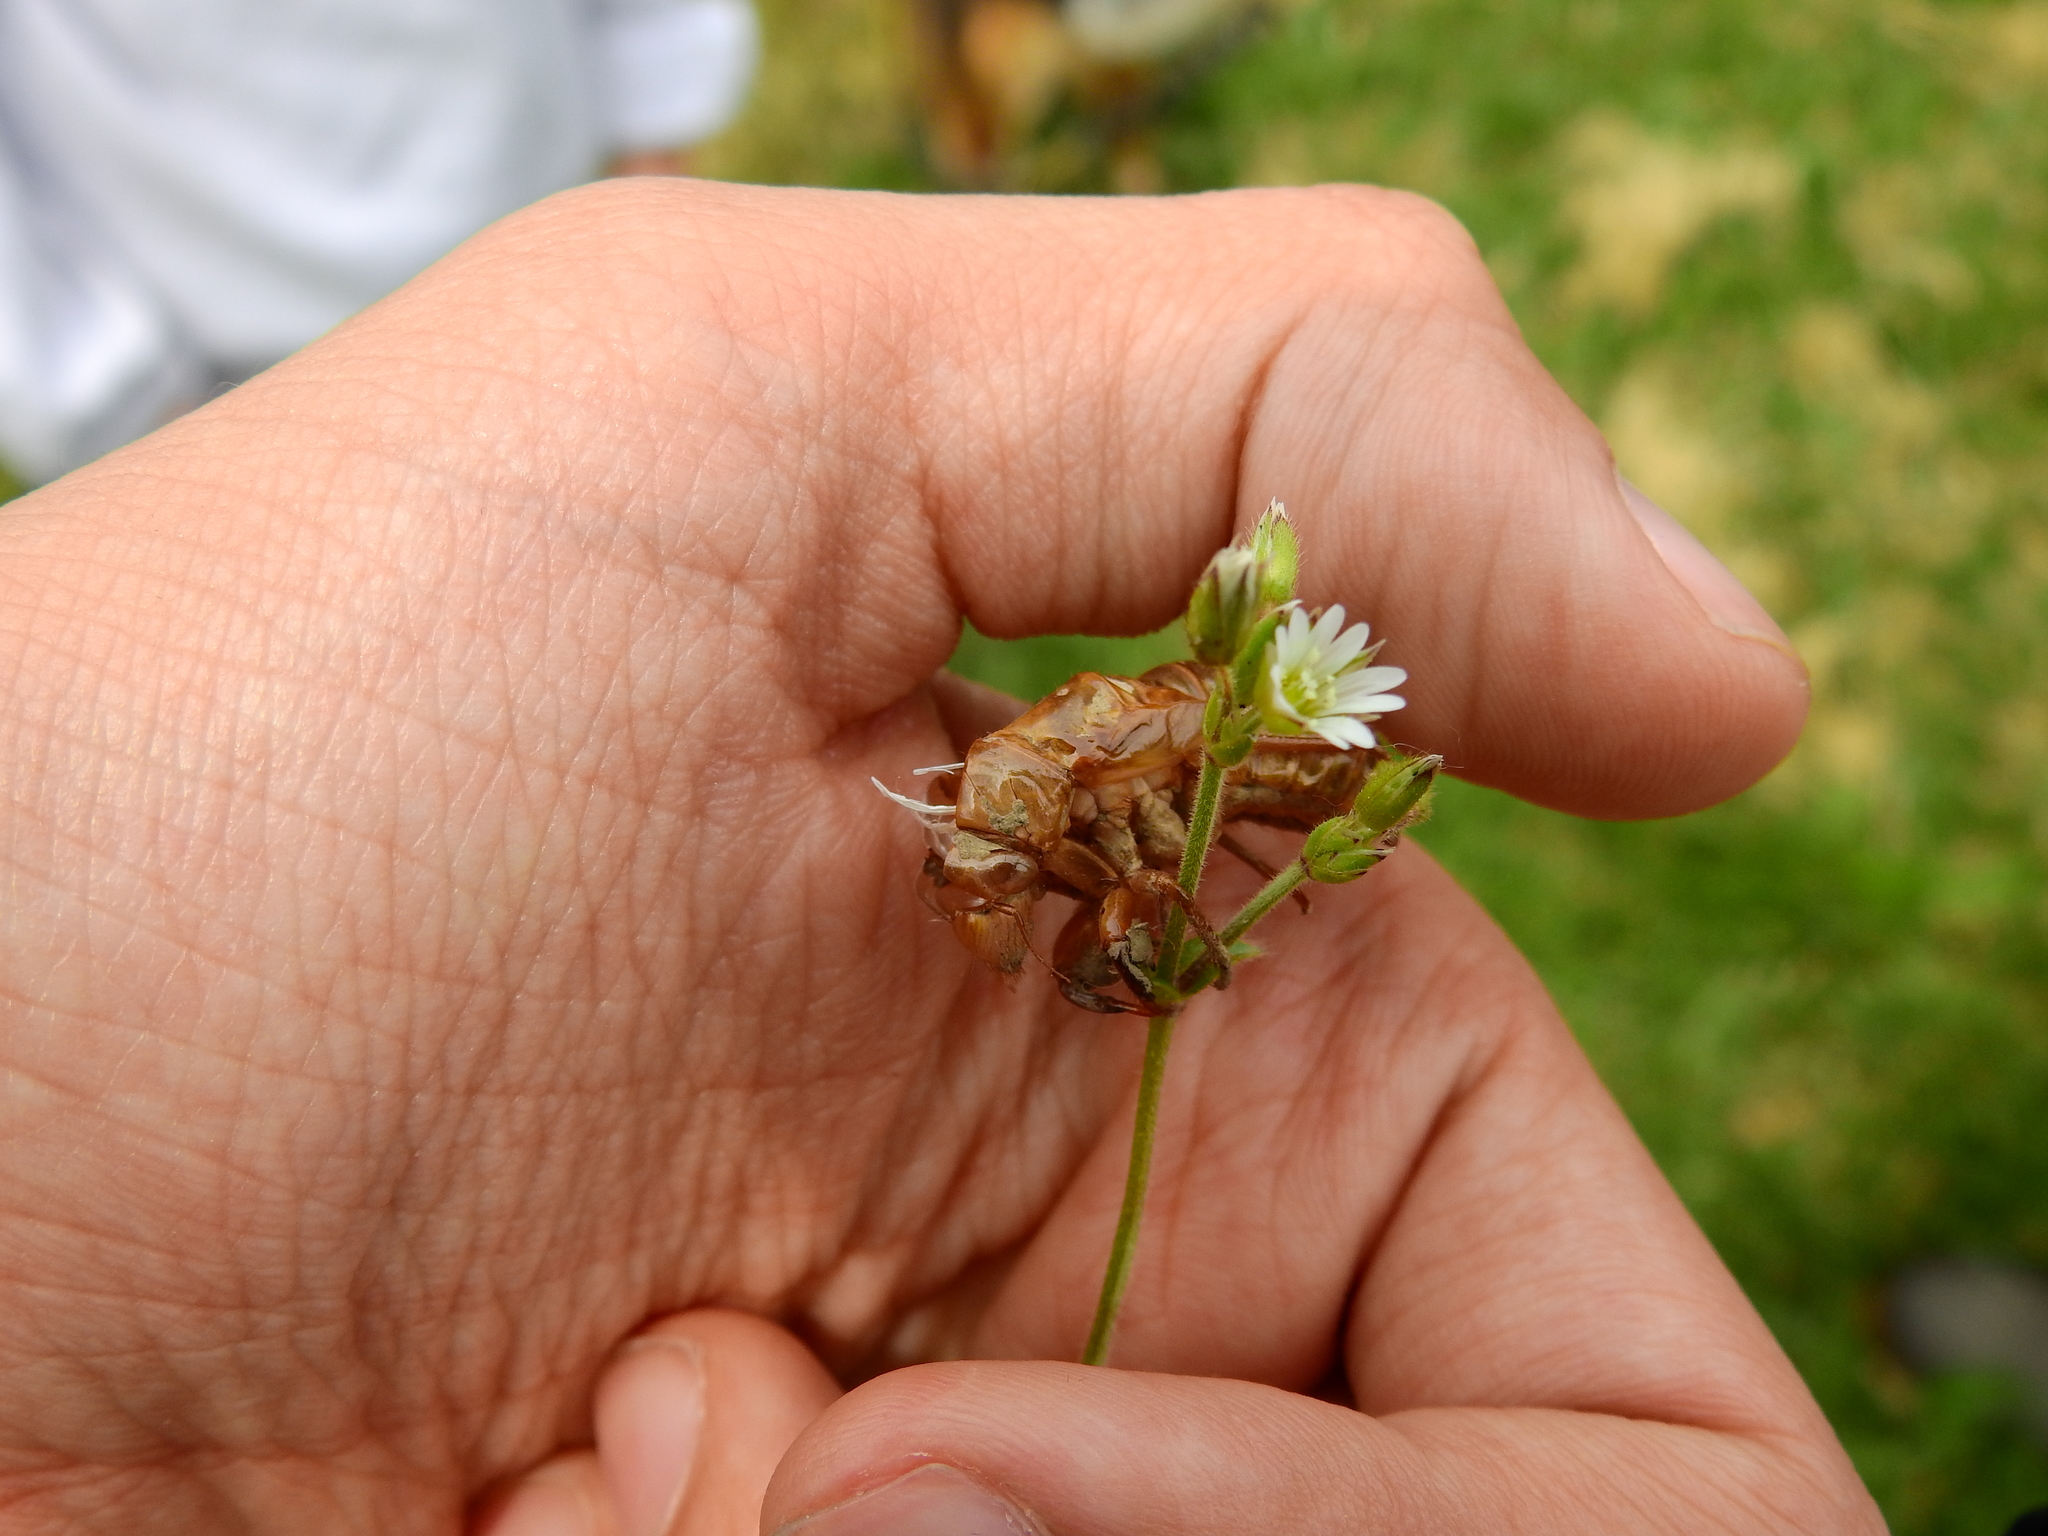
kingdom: Animalia
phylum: Arthropoda
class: Insecta
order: Hemiptera
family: Cicadidae
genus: Magicicada
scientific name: Magicicada
